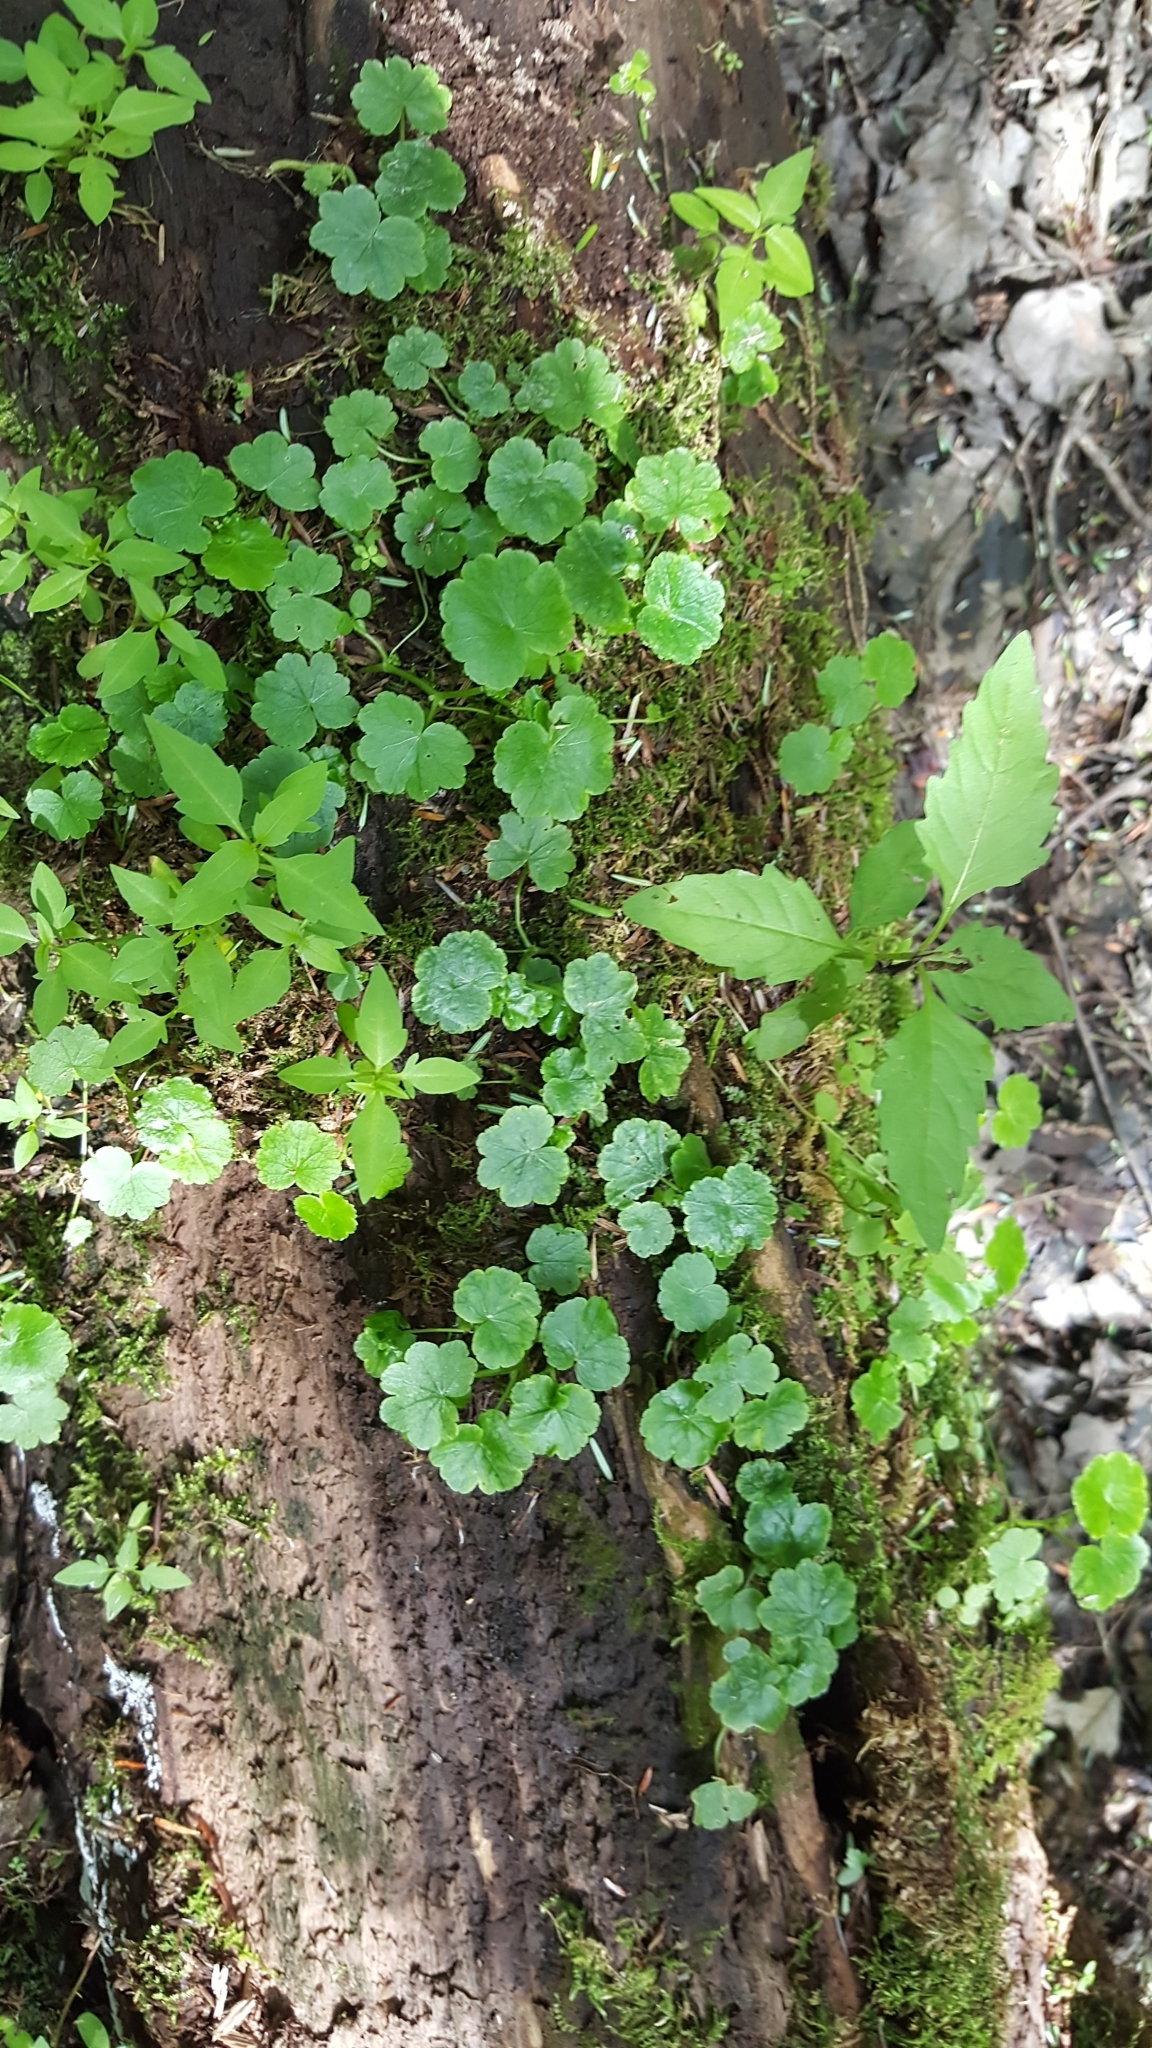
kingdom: Plantae
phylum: Tracheophyta
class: Magnoliopsida
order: Apiales
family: Araliaceae
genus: Hydrocotyle
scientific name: Hydrocotyle americana
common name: American water-pennywort
